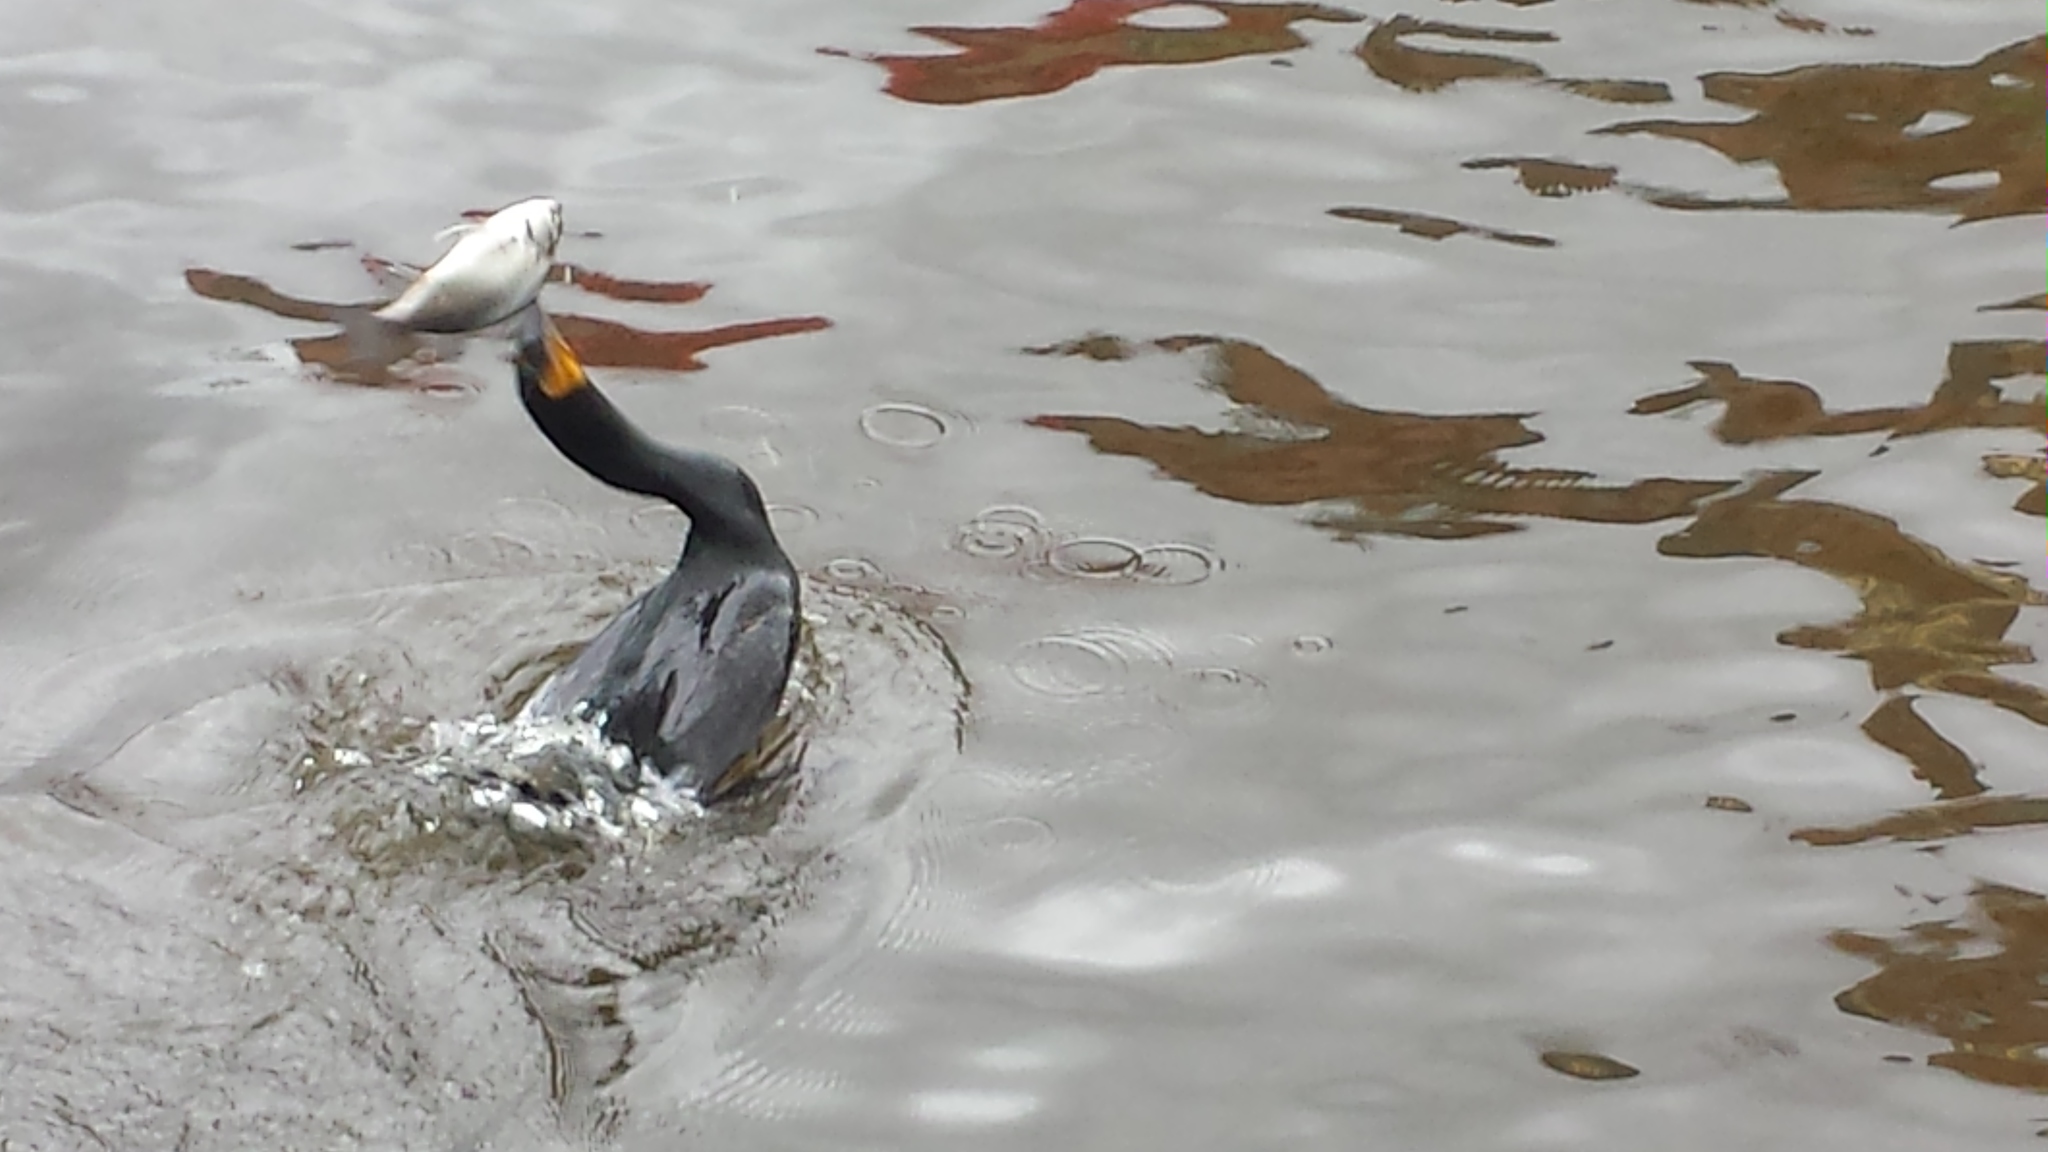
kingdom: Animalia
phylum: Chordata
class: Aves
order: Suliformes
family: Phalacrocoracidae
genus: Phalacrocorax
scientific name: Phalacrocorax auritus
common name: Double-crested cormorant
